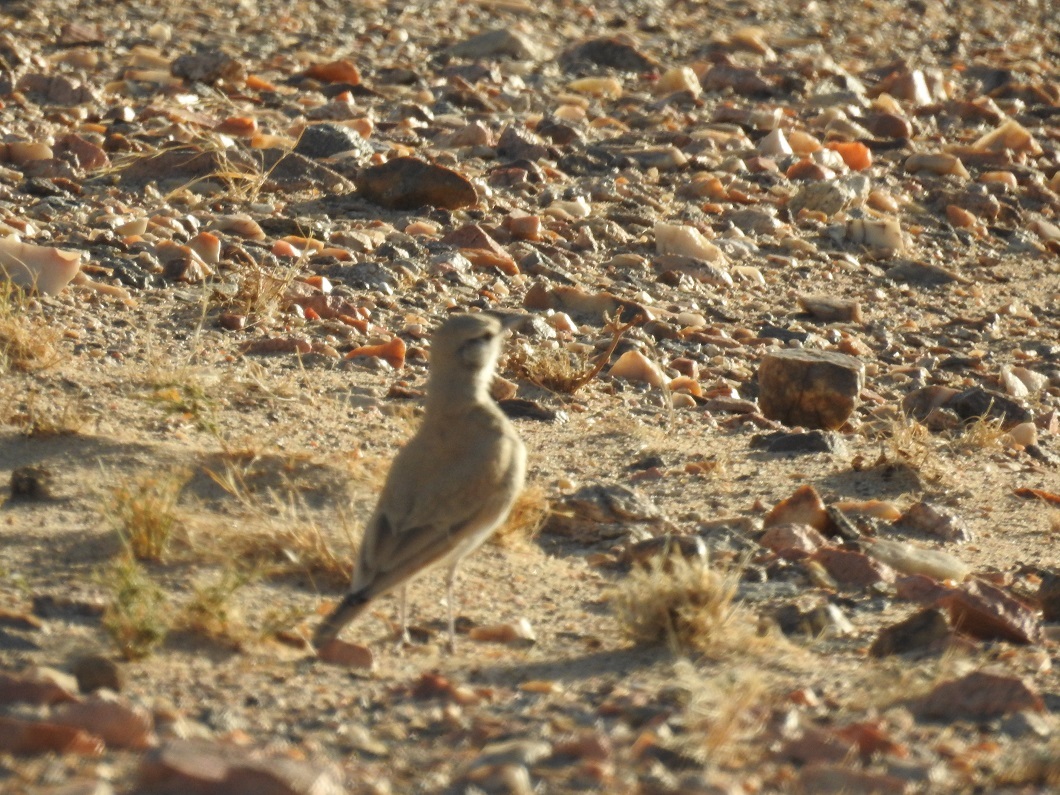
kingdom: Animalia
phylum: Chordata
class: Aves
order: Passeriformes
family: Alaudidae
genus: Alaemon
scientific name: Alaemon alaudipes
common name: Greater hoopoe-lark
